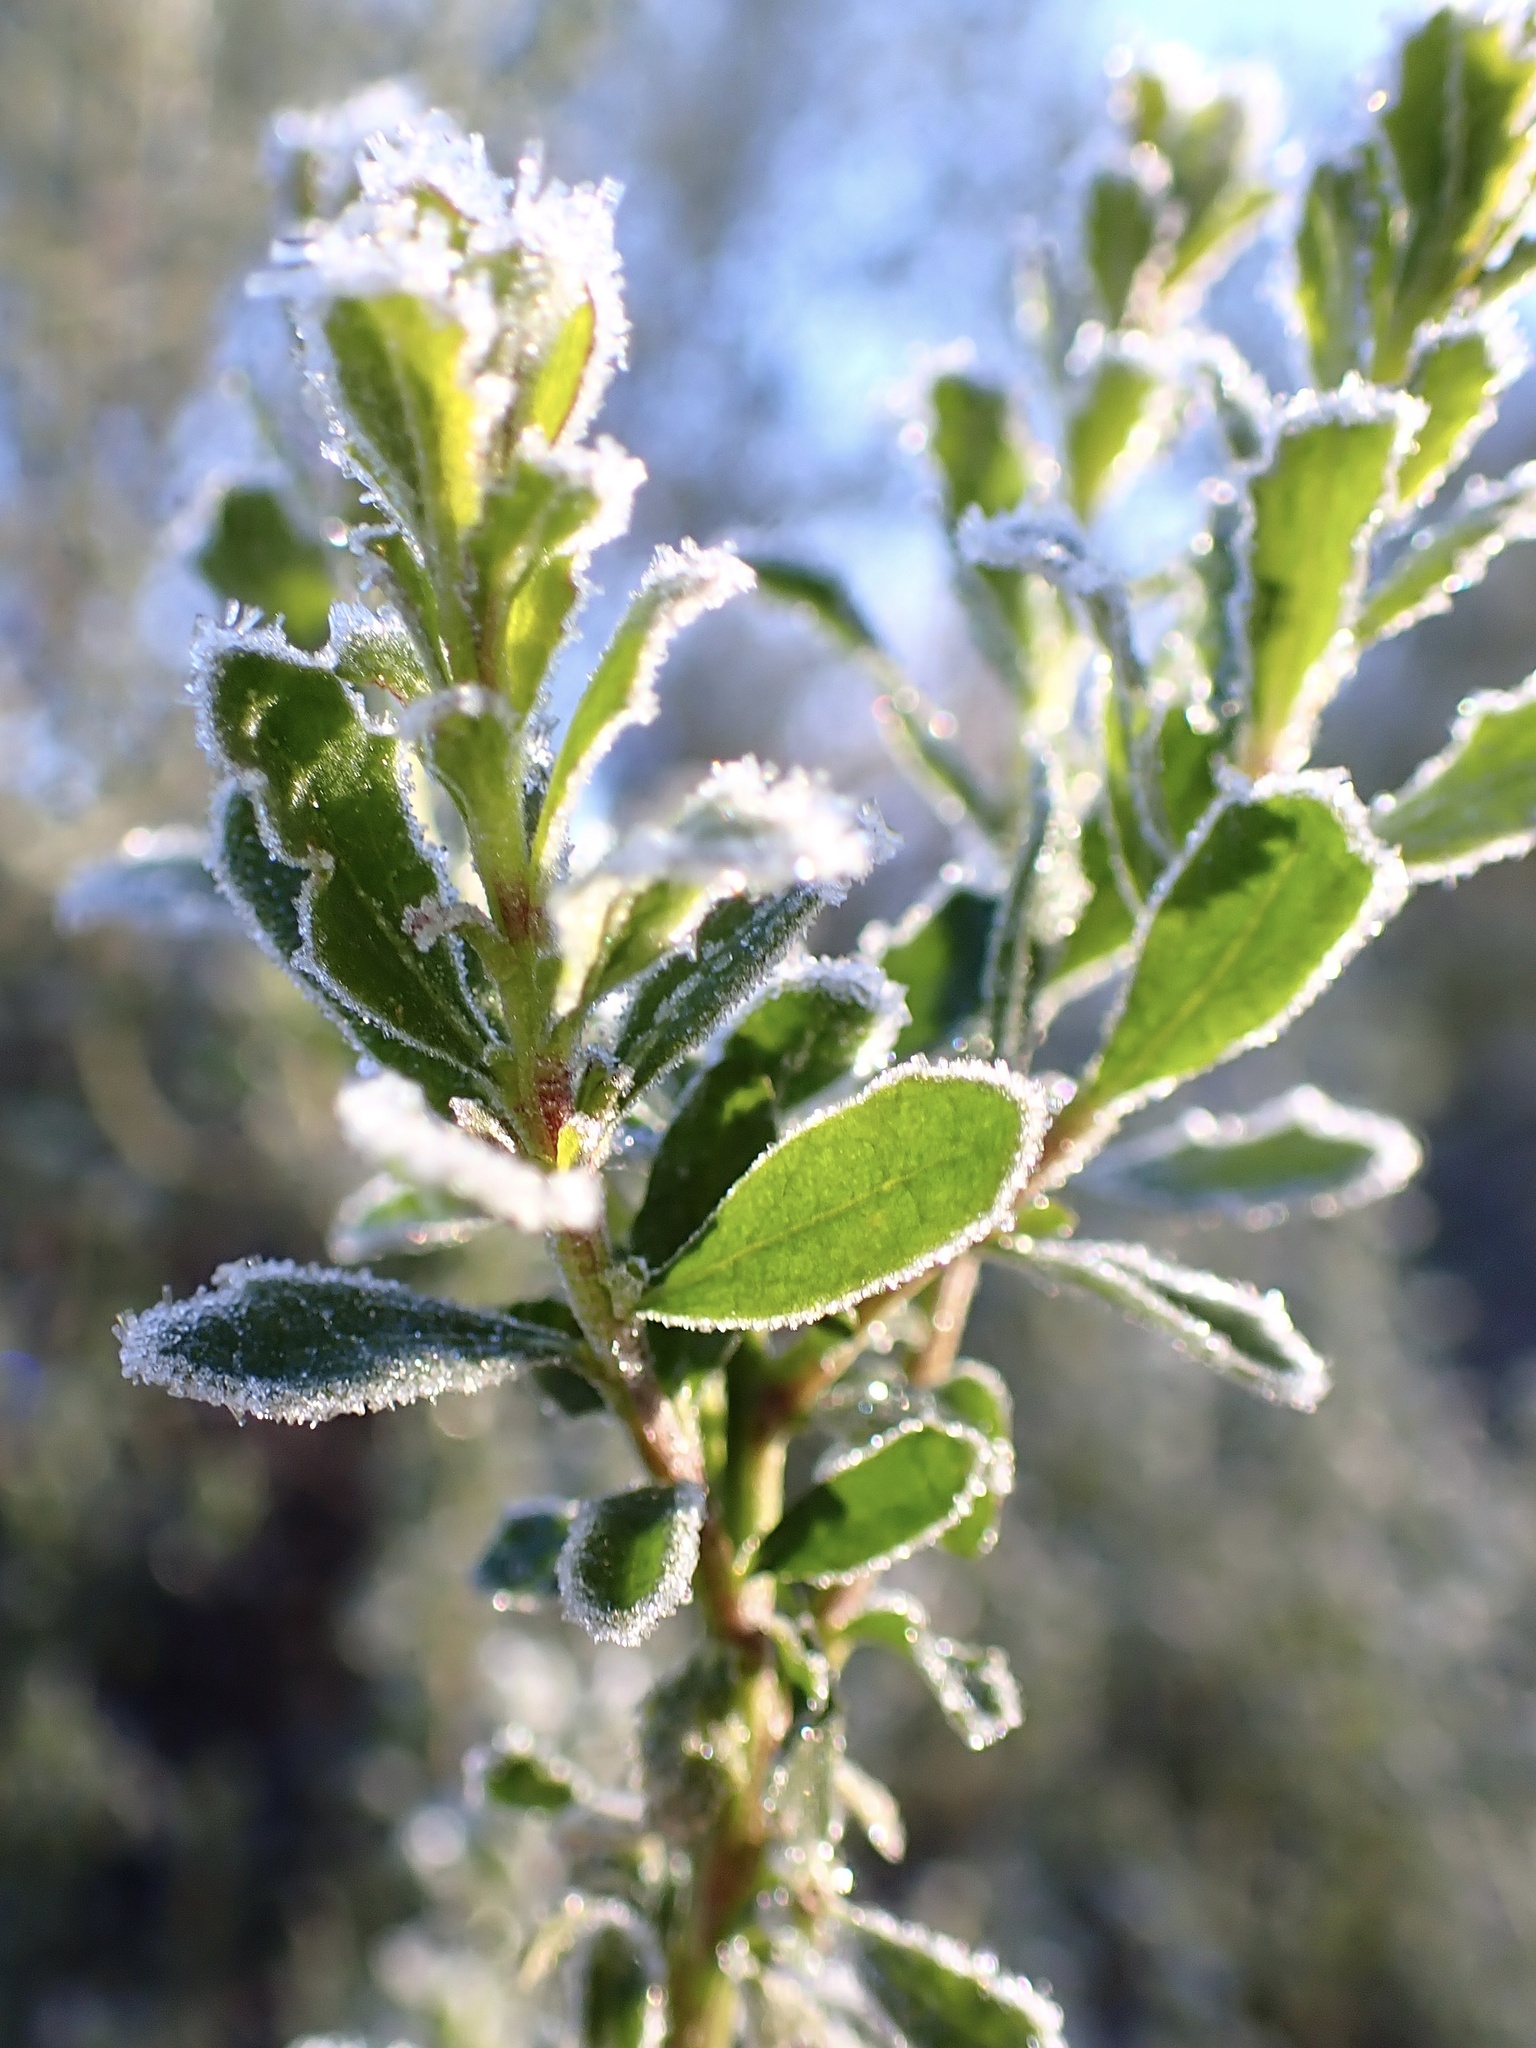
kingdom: Plantae
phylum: Tracheophyta
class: Magnoliopsida
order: Asterales
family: Asteraceae
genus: Baccharis
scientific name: Baccharis pilularis
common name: Coyotebrush
